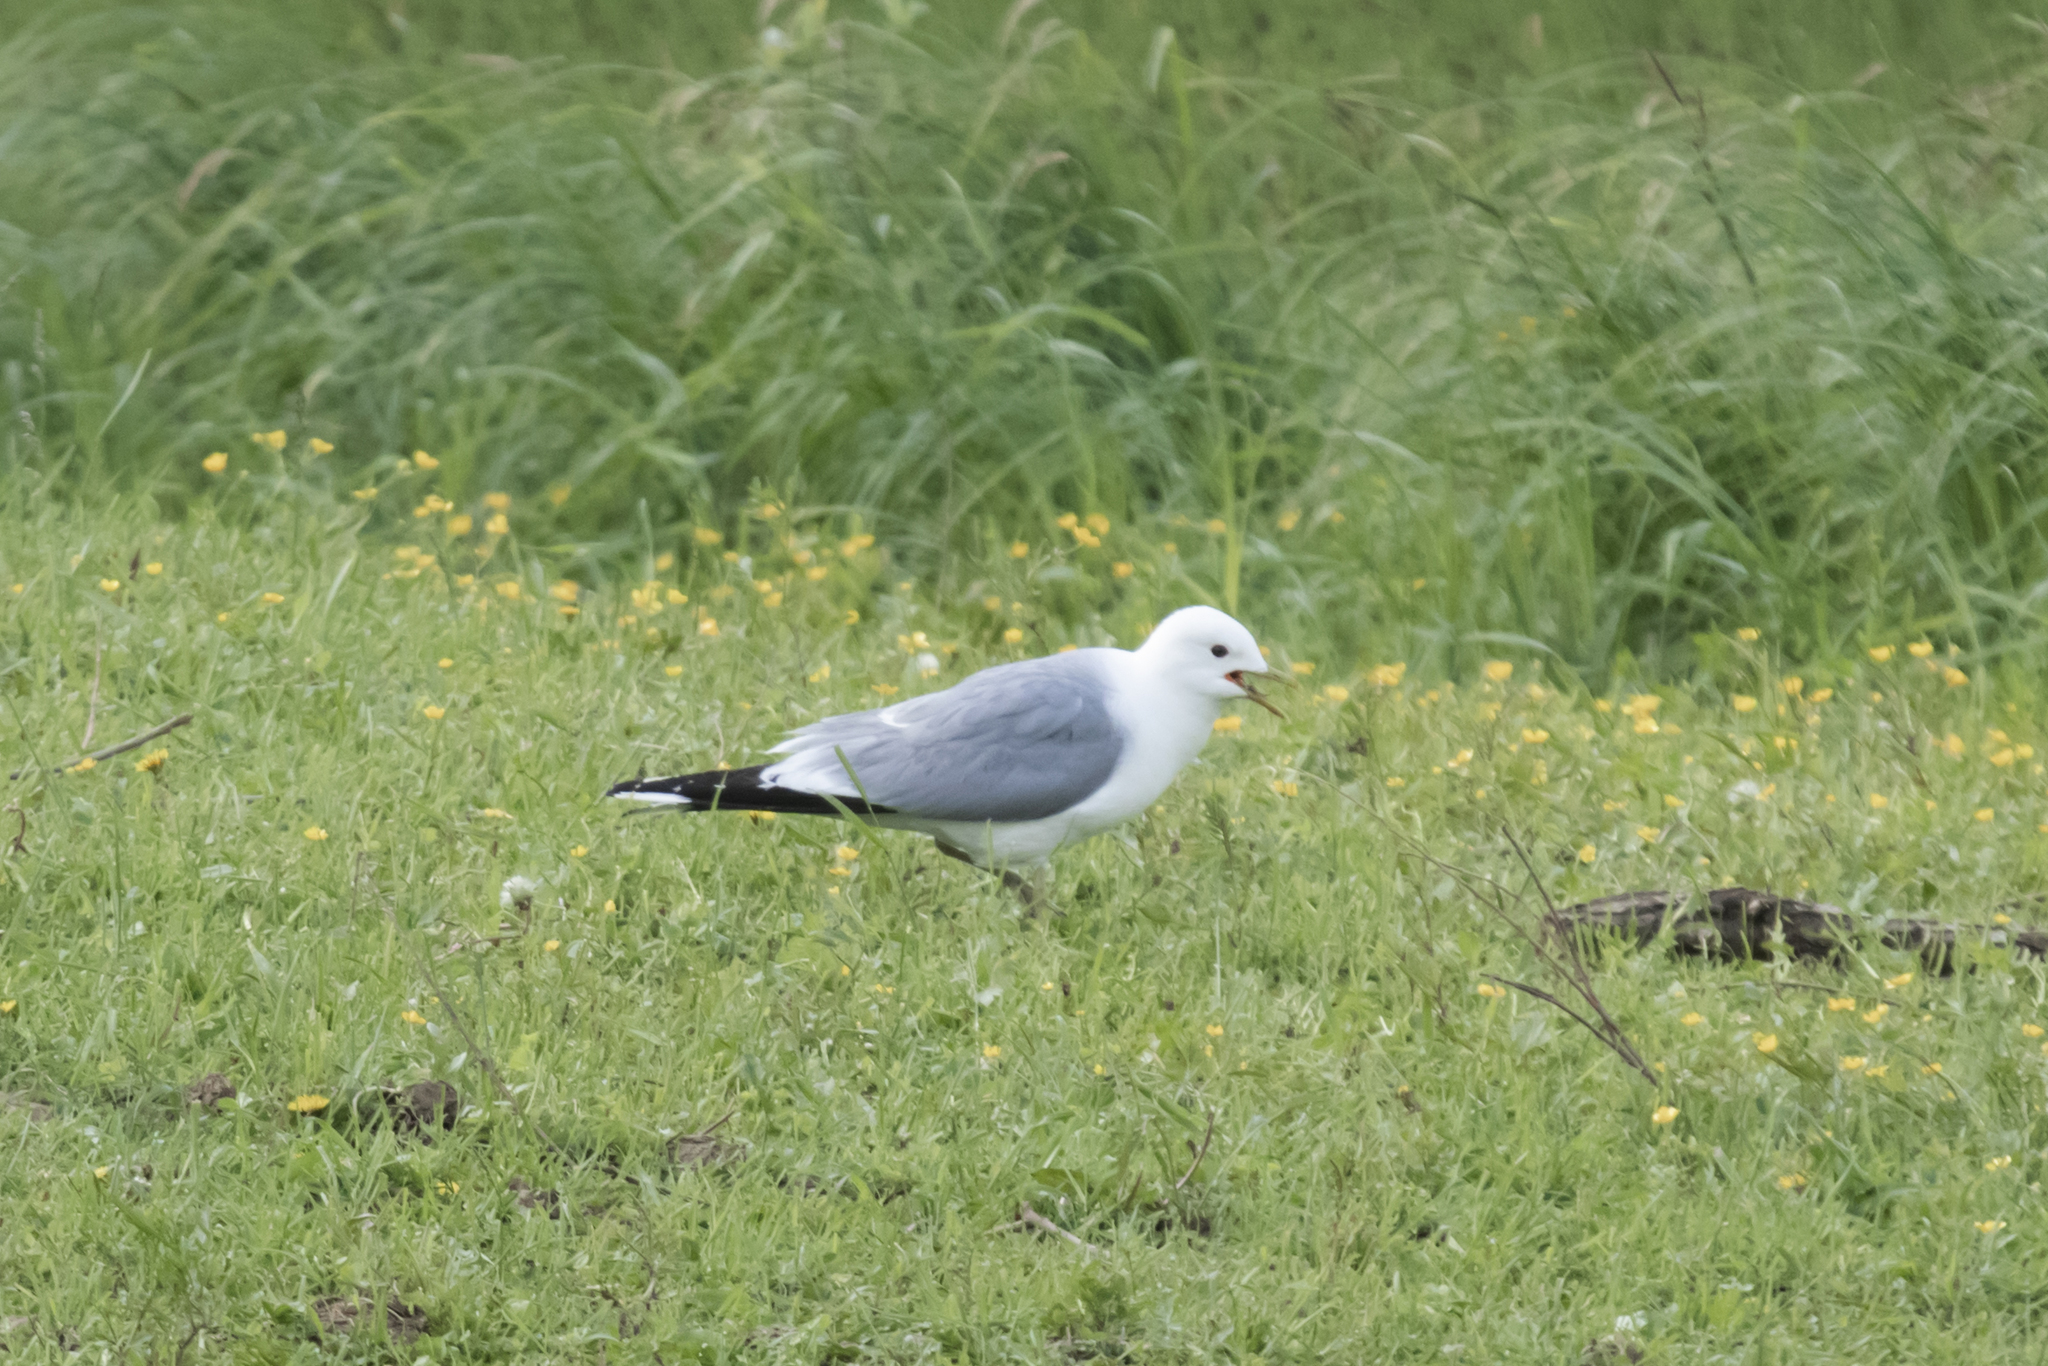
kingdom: Animalia
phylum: Chordata
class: Aves
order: Charadriiformes
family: Laridae
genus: Larus
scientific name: Larus canus
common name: Mew gull
